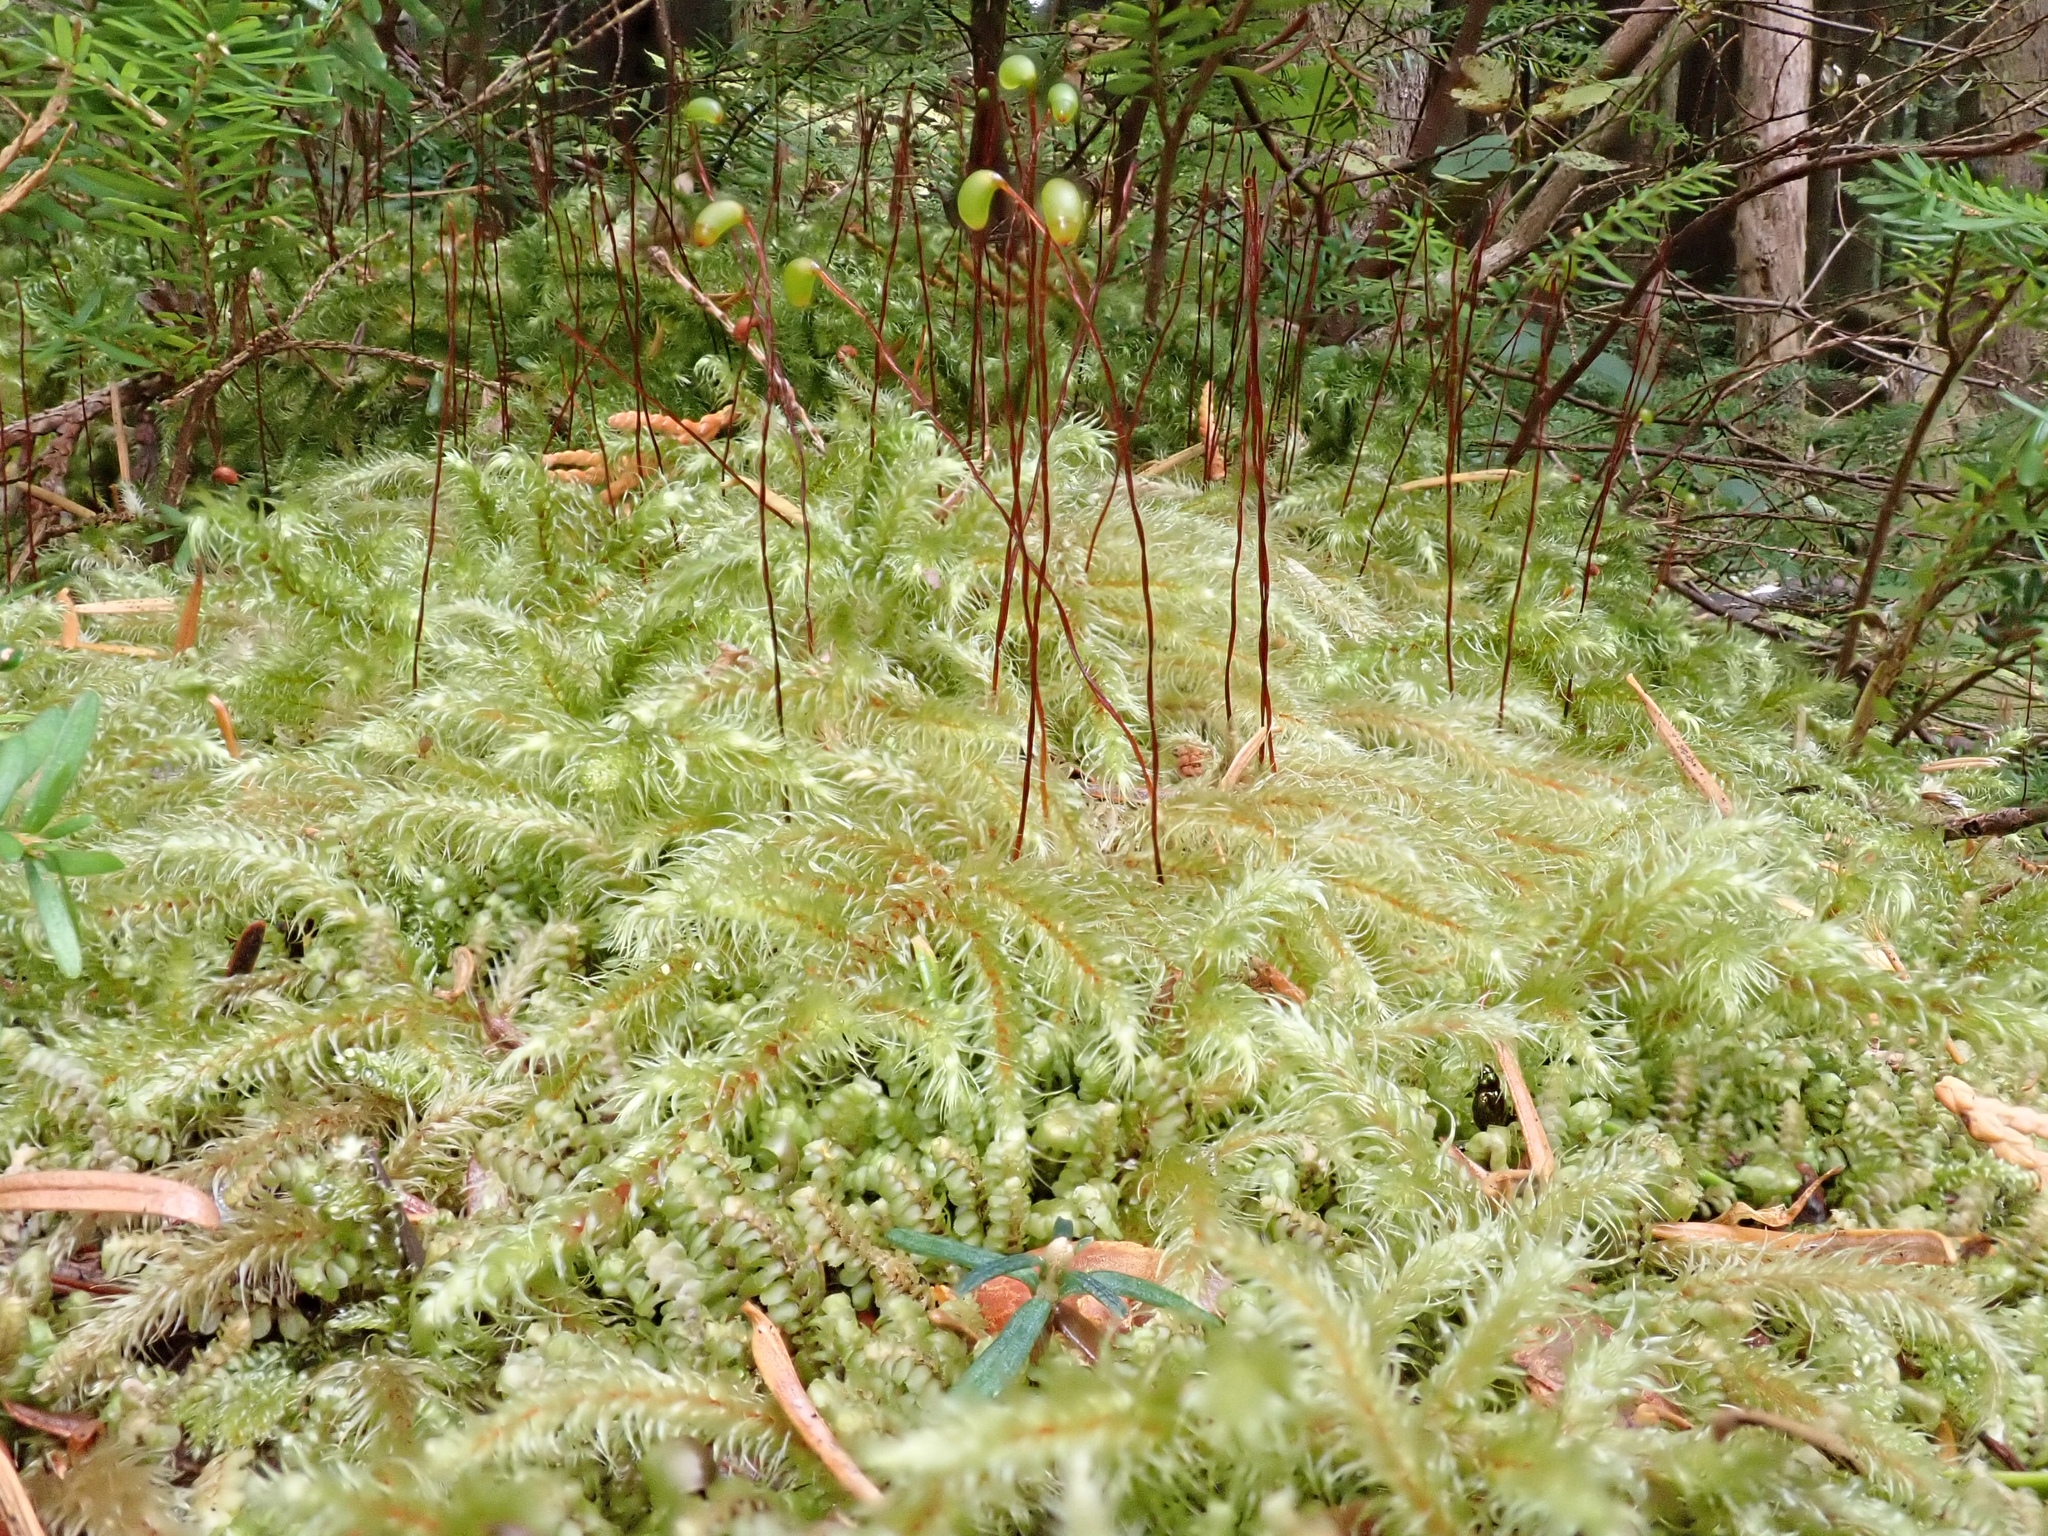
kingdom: Plantae
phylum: Bryophyta
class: Bryopsida
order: Hypnales
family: Hylocomiaceae
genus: Rhytidiadelphus
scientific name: Rhytidiadelphus loreus
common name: Lanky moss
